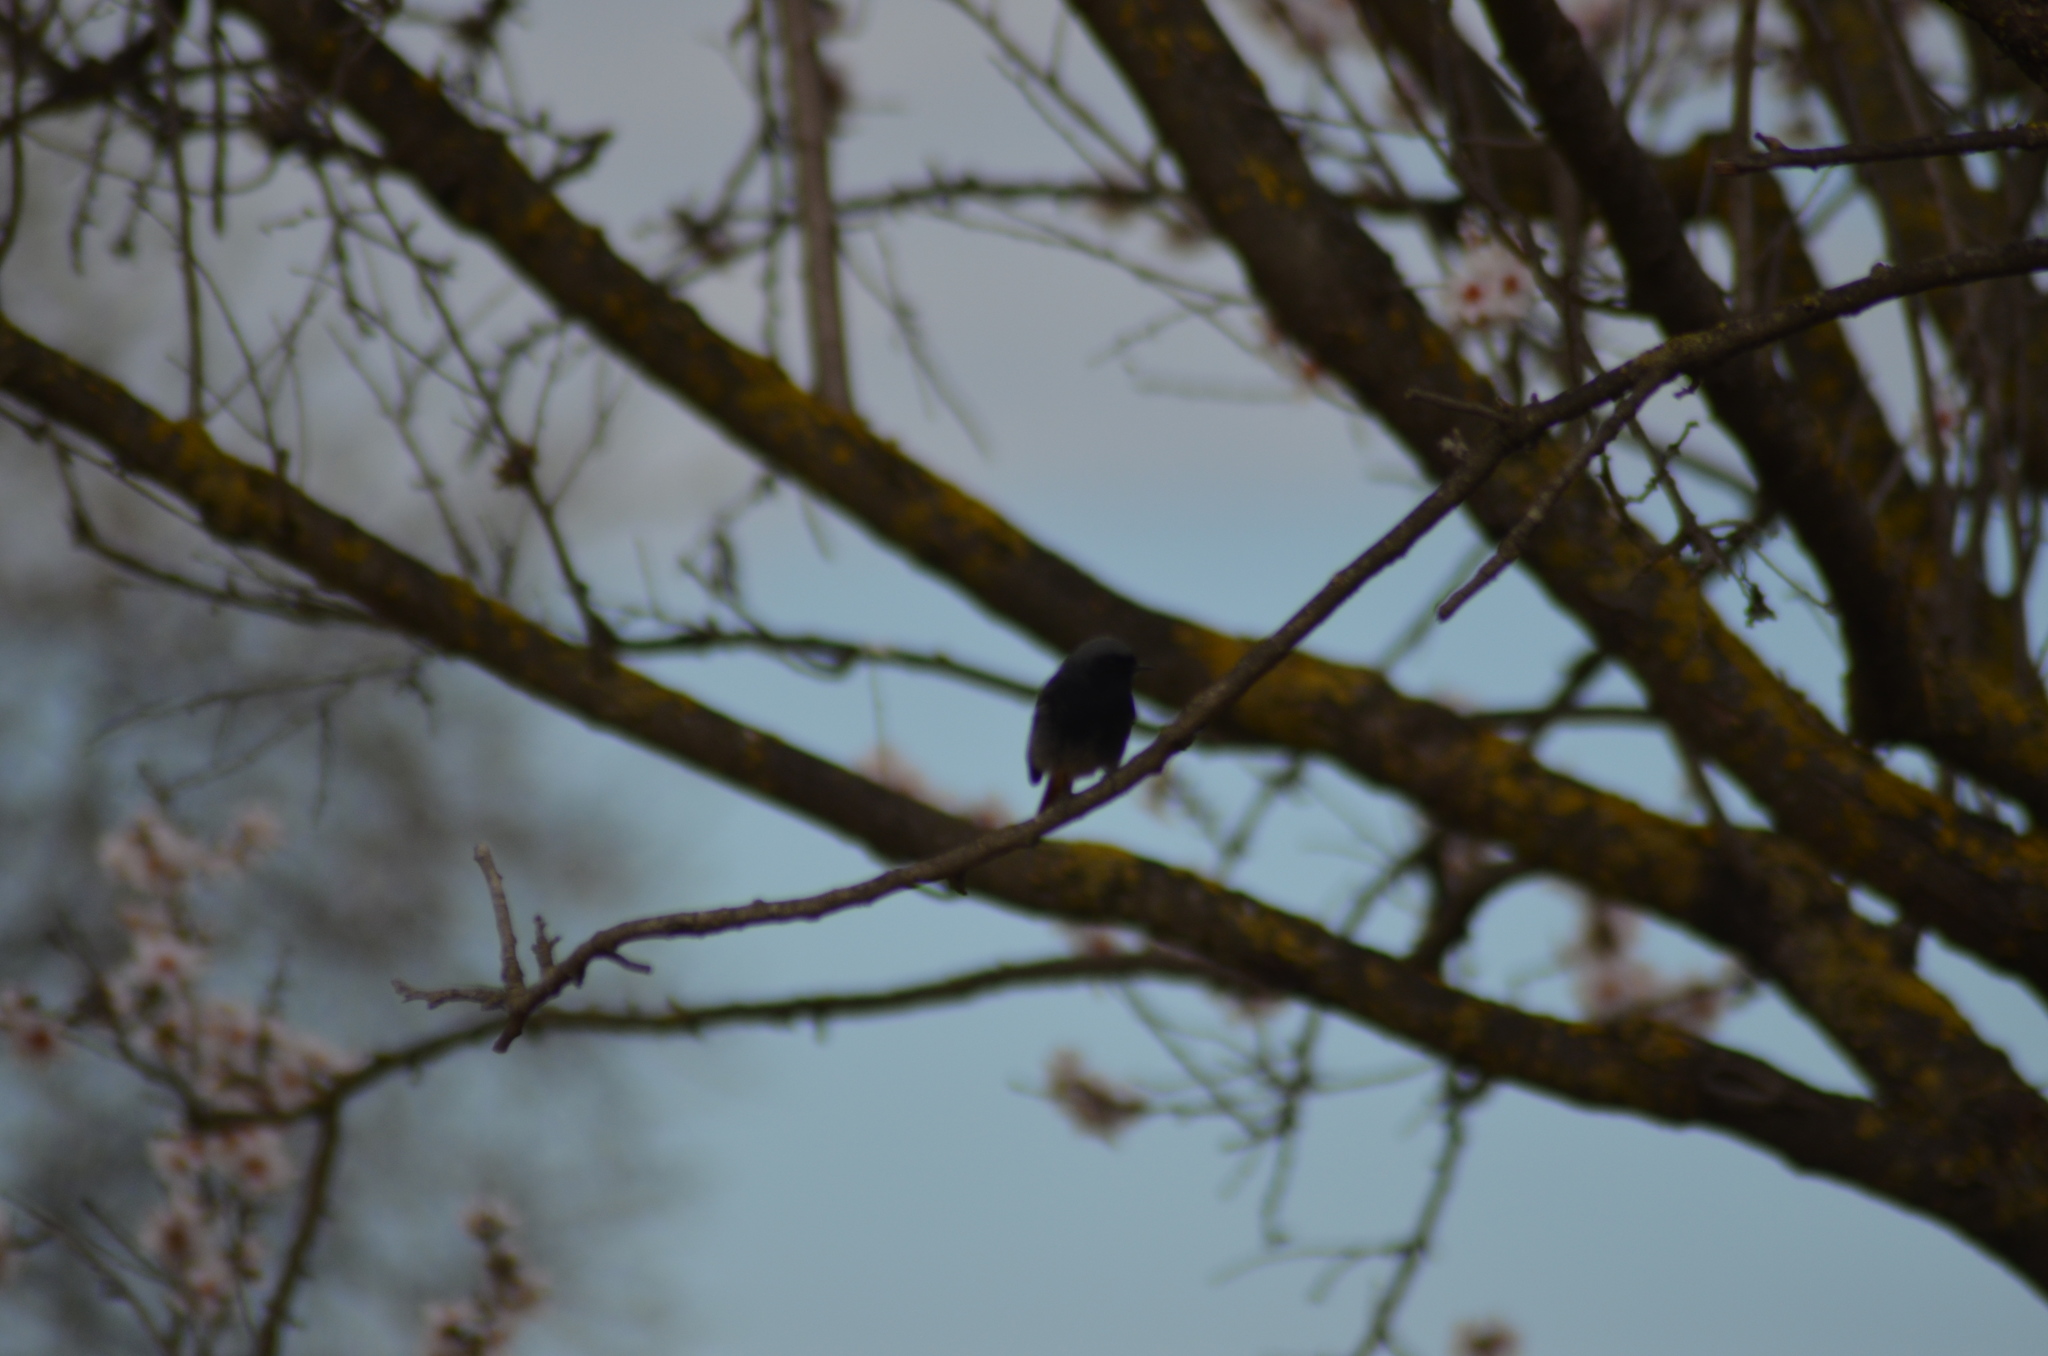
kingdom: Animalia
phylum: Chordata
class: Aves
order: Passeriformes
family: Muscicapidae
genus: Phoenicurus
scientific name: Phoenicurus ochruros
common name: Black redstart
